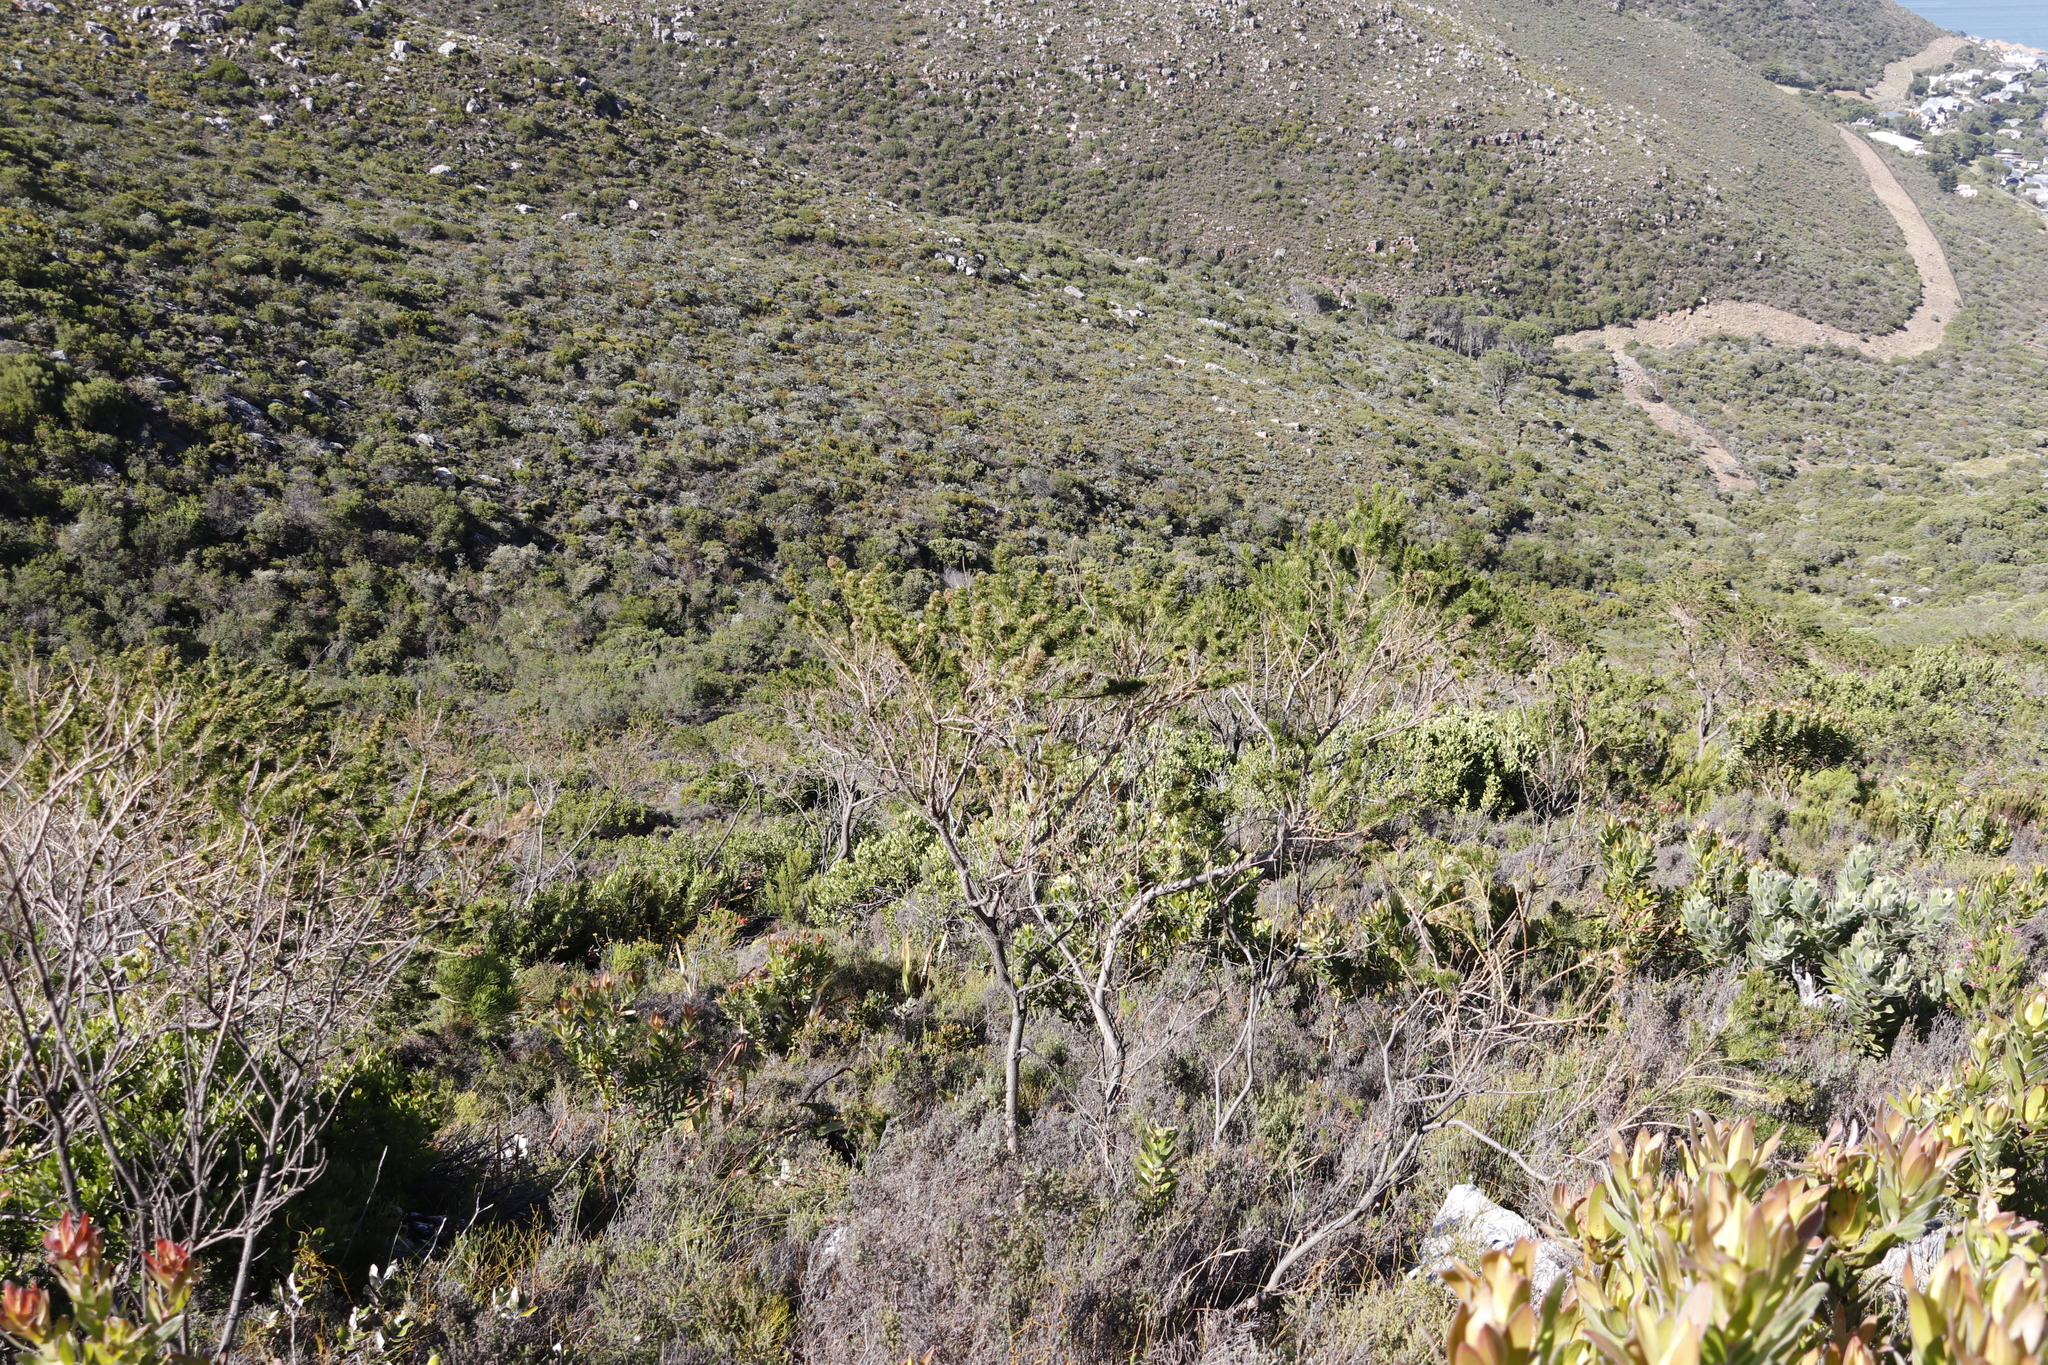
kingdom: Plantae
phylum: Tracheophyta
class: Magnoliopsida
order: Fabales
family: Fabaceae
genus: Psoralea
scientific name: Psoralea pinnata
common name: African scurfpea
